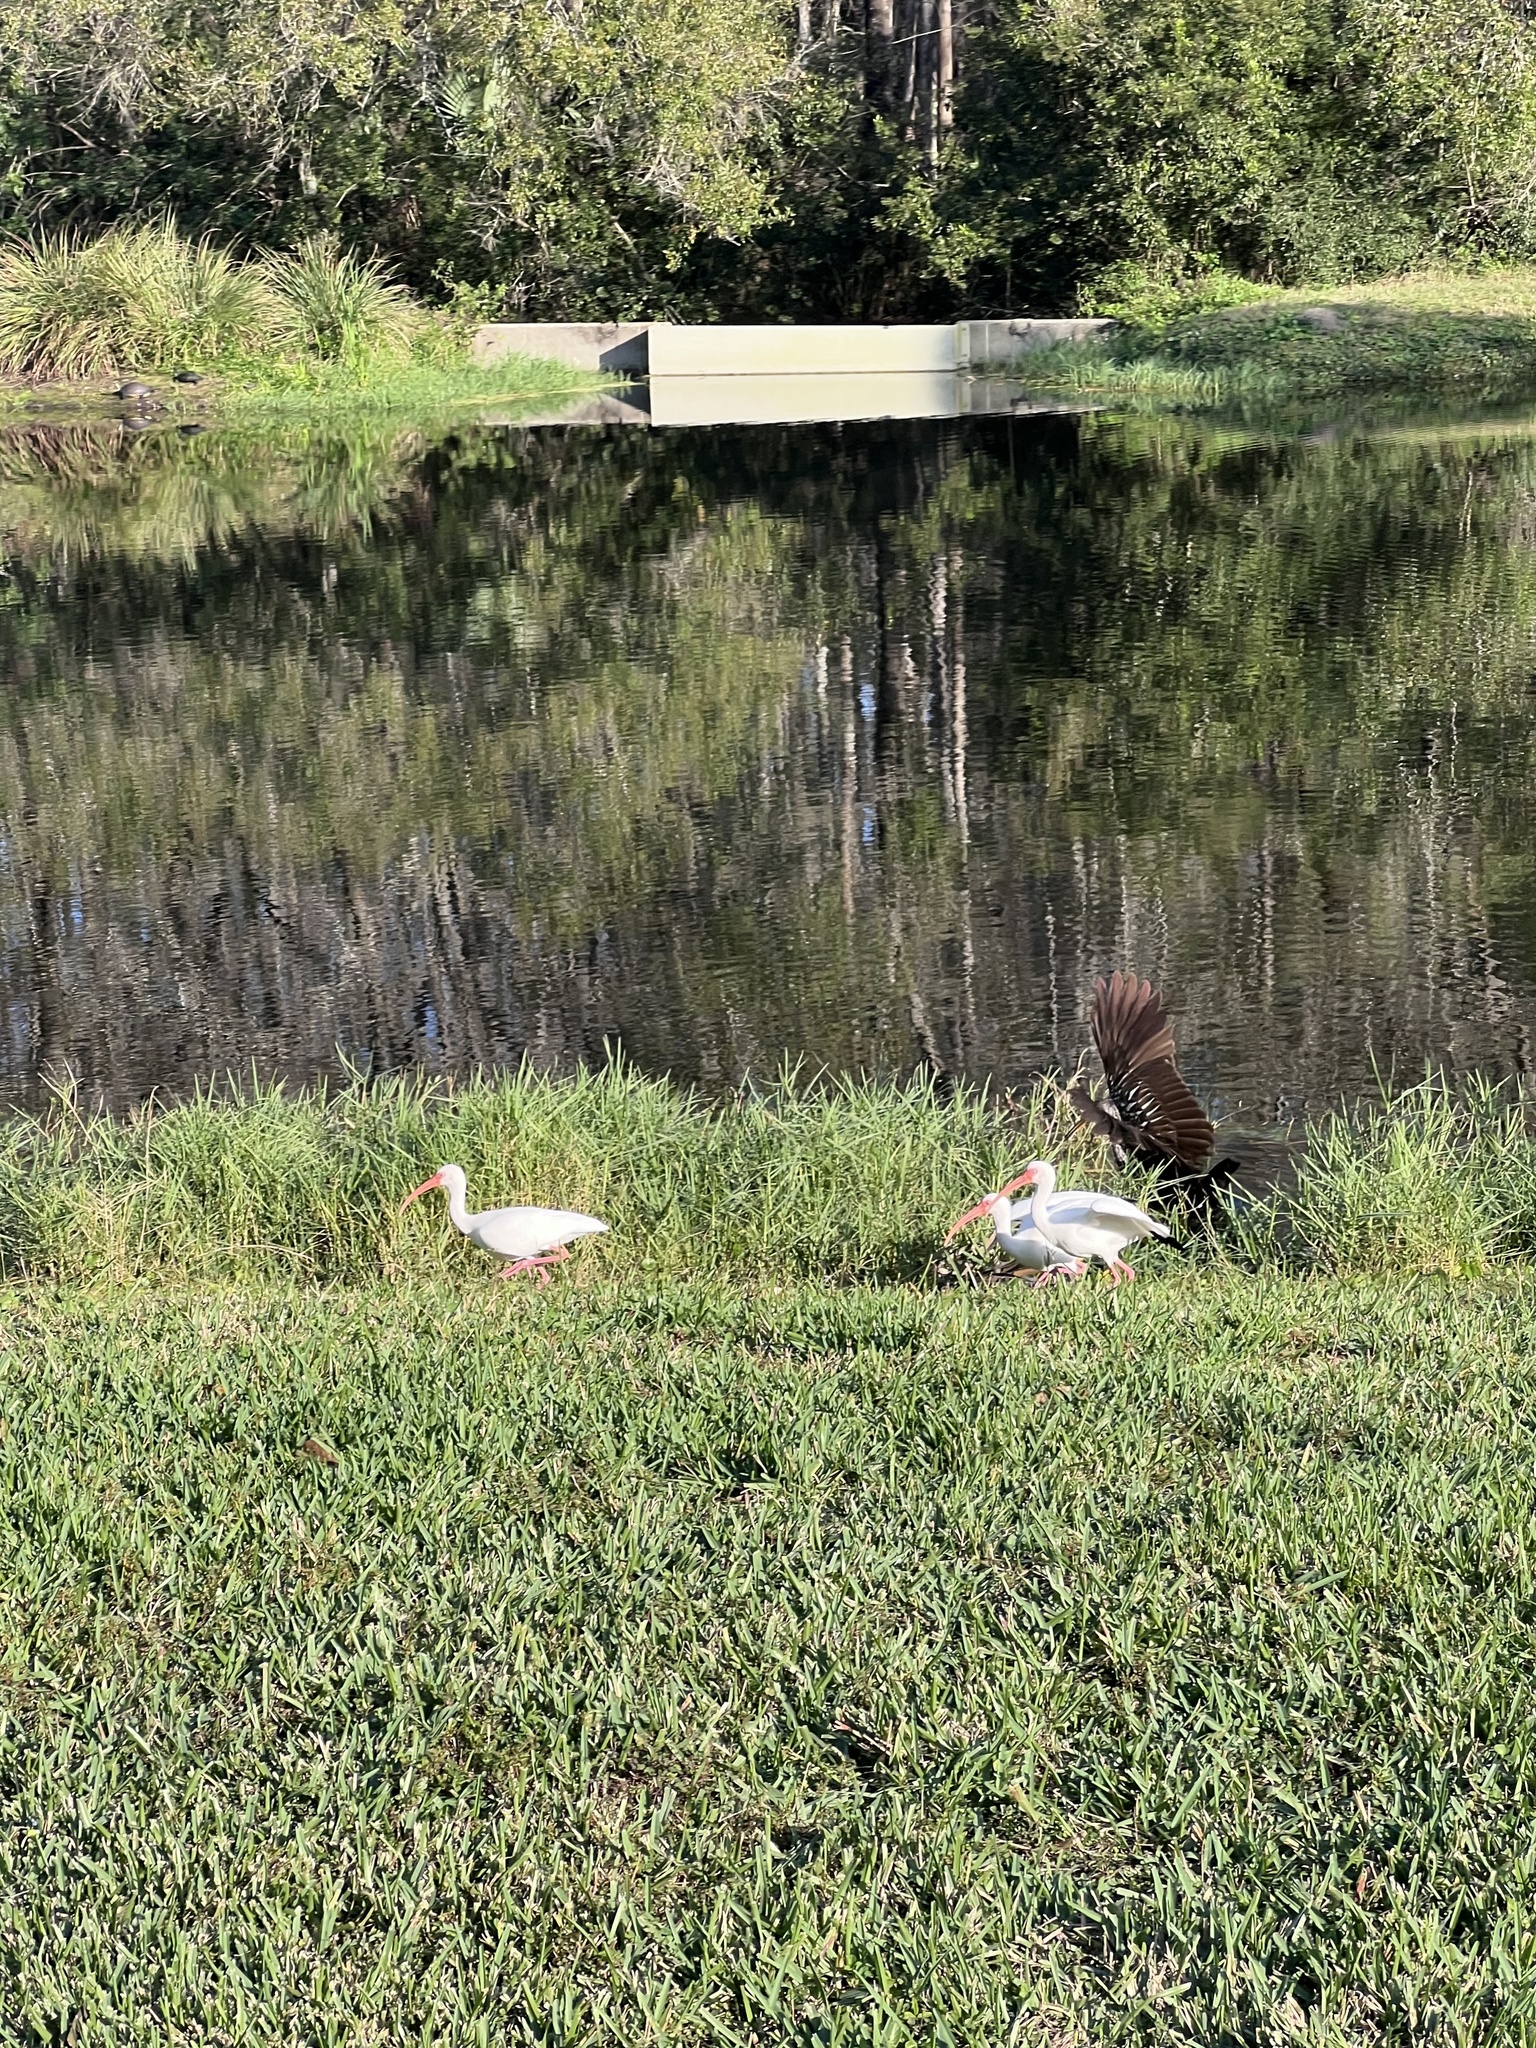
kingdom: Animalia
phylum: Chordata
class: Aves
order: Gruiformes
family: Aramidae
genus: Aramus
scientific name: Aramus guarauna
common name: Limpkin
